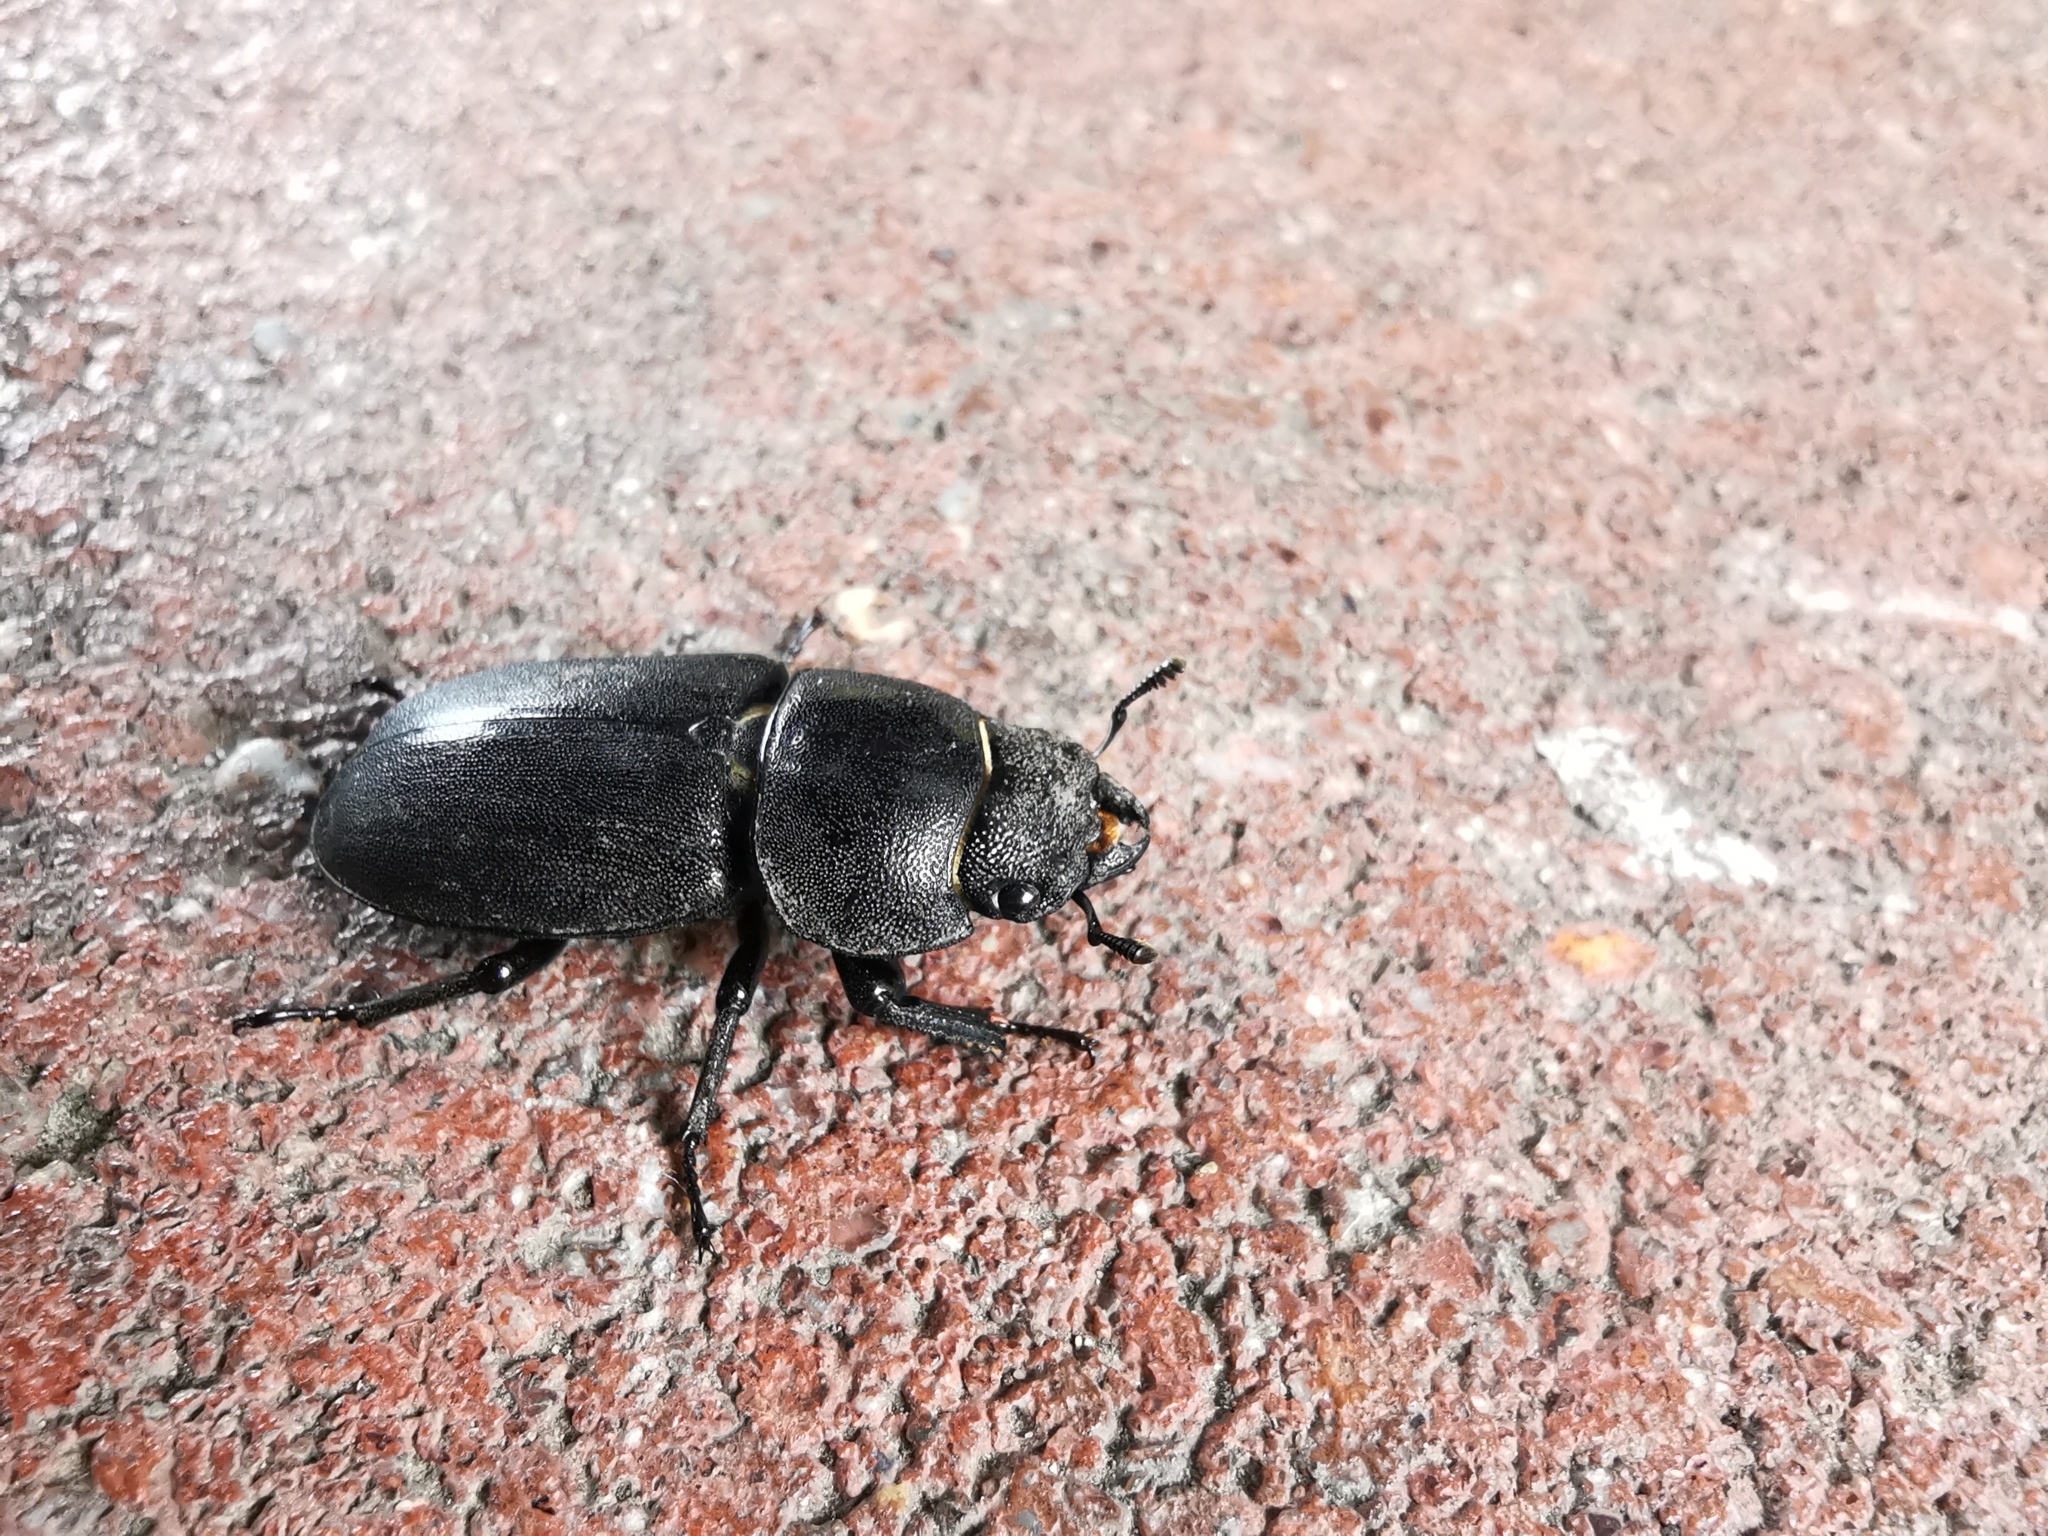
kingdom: Animalia
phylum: Arthropoda
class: Insecta
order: Coleoptera
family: Lucanidae
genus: Dorcus
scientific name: Dorcus parallelipipedus
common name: Lesser stag beetle
